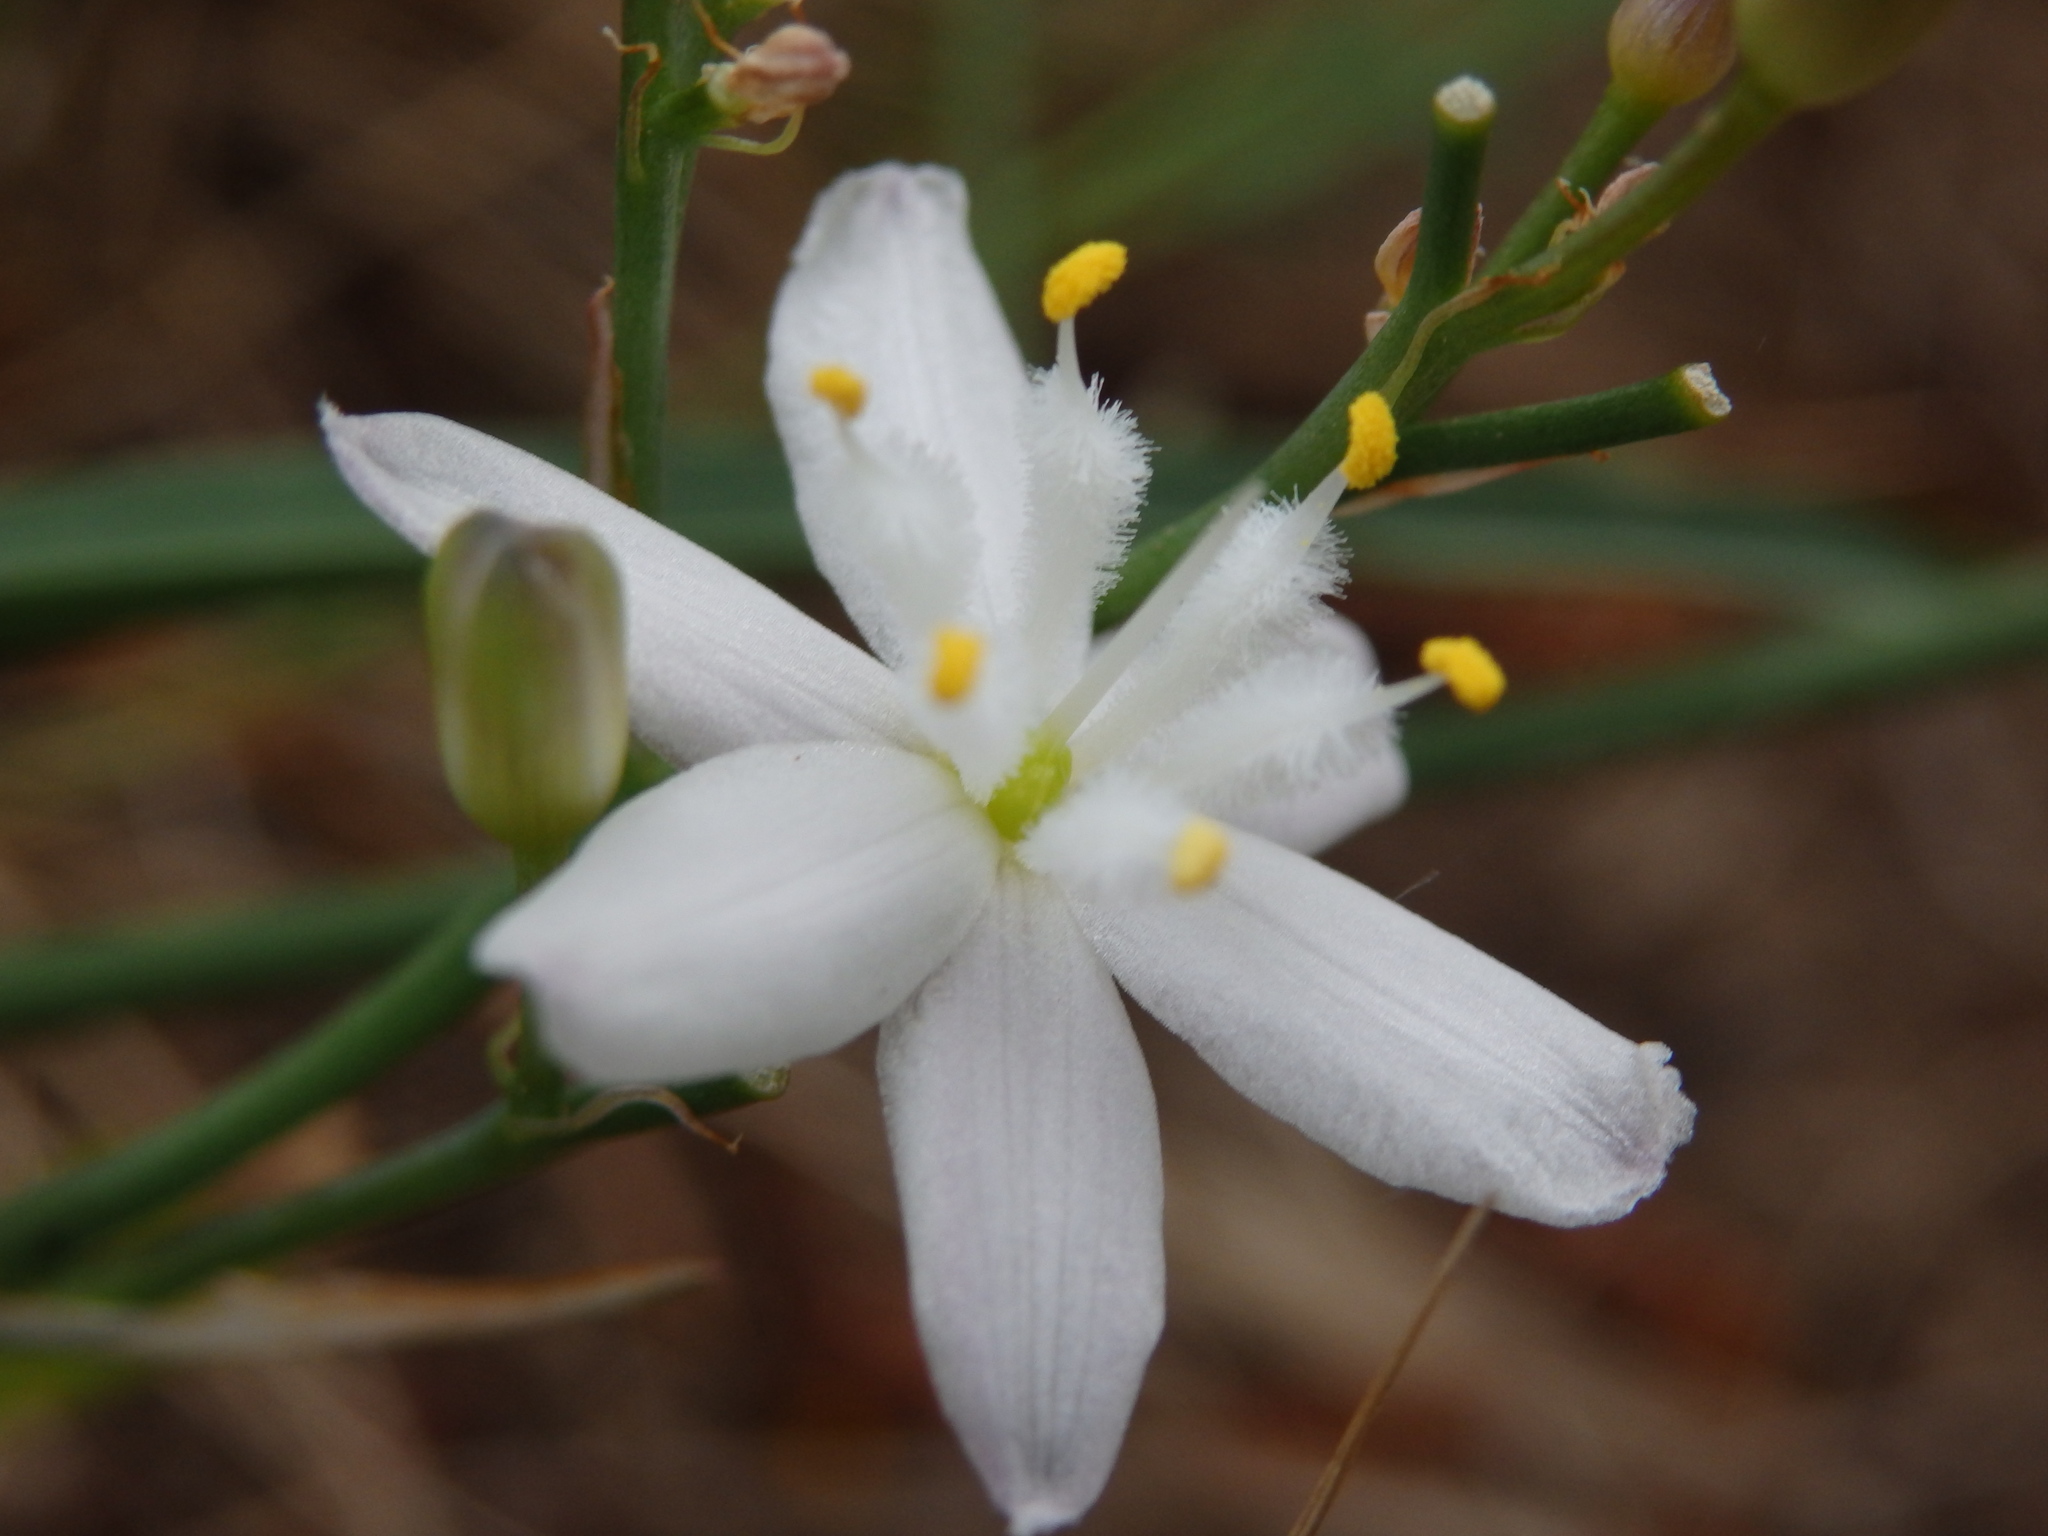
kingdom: Plantae
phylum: Tracheophyta
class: Liliopsida
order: Asparagales
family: Asphodelaceae
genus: Simethis
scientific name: Simethis mattiazzii
